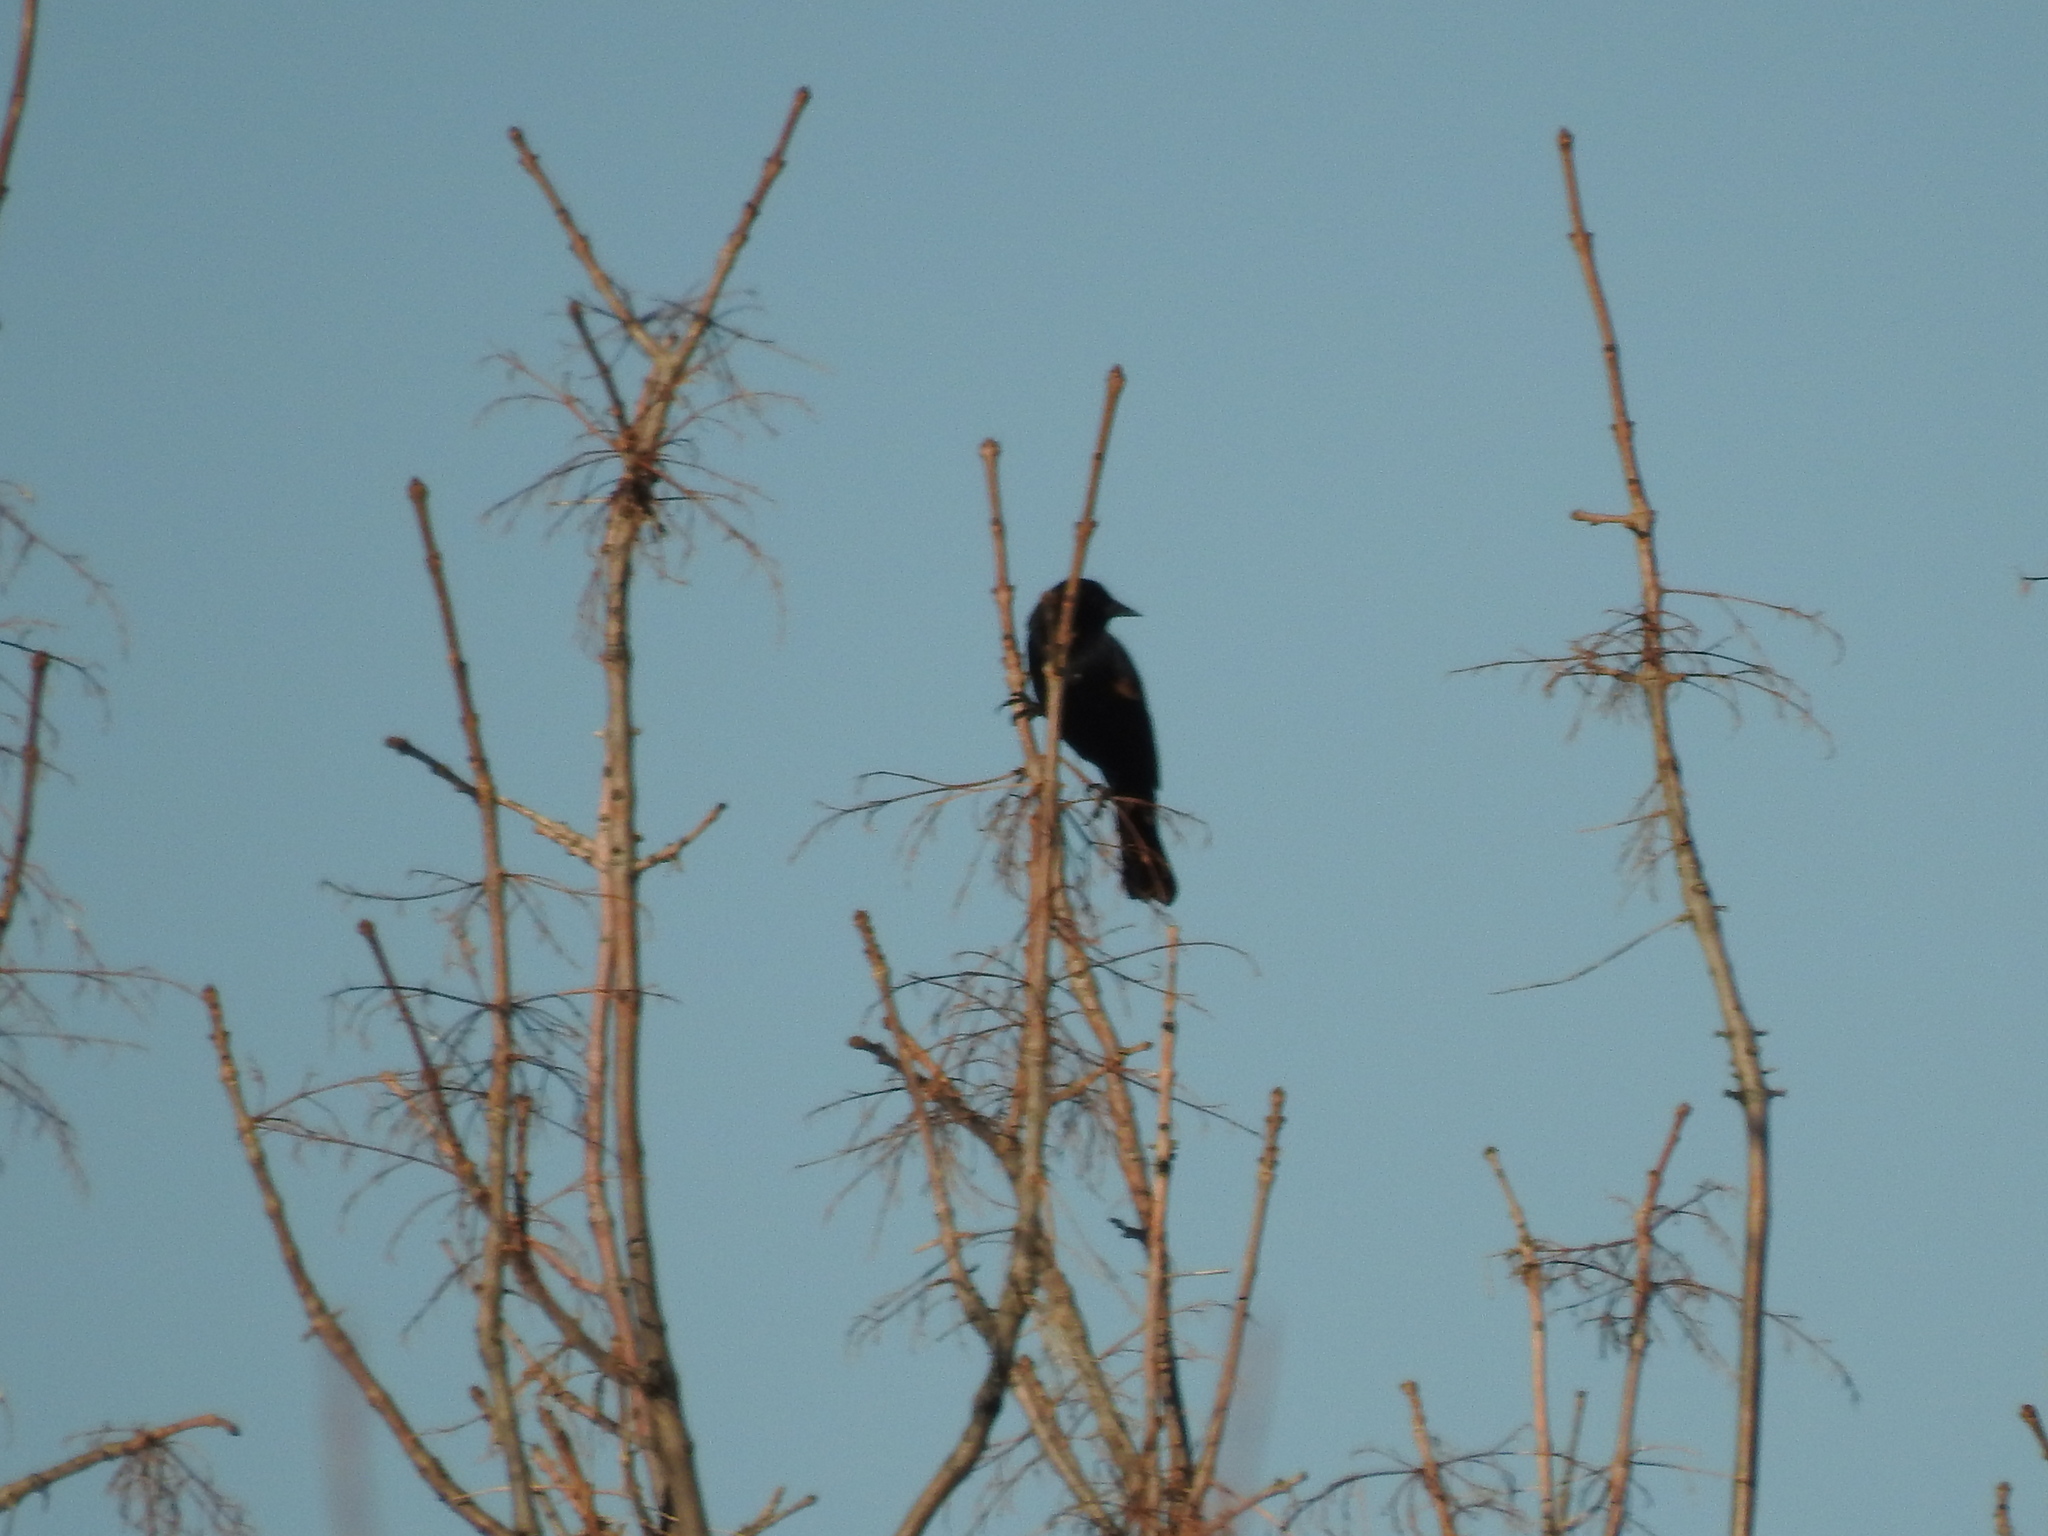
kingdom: Animalia
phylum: Chordata
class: Aves
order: Passeriformes
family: Icteridae
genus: Agelaius
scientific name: Agelaius phoeniceus
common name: Red-winged blackbird
